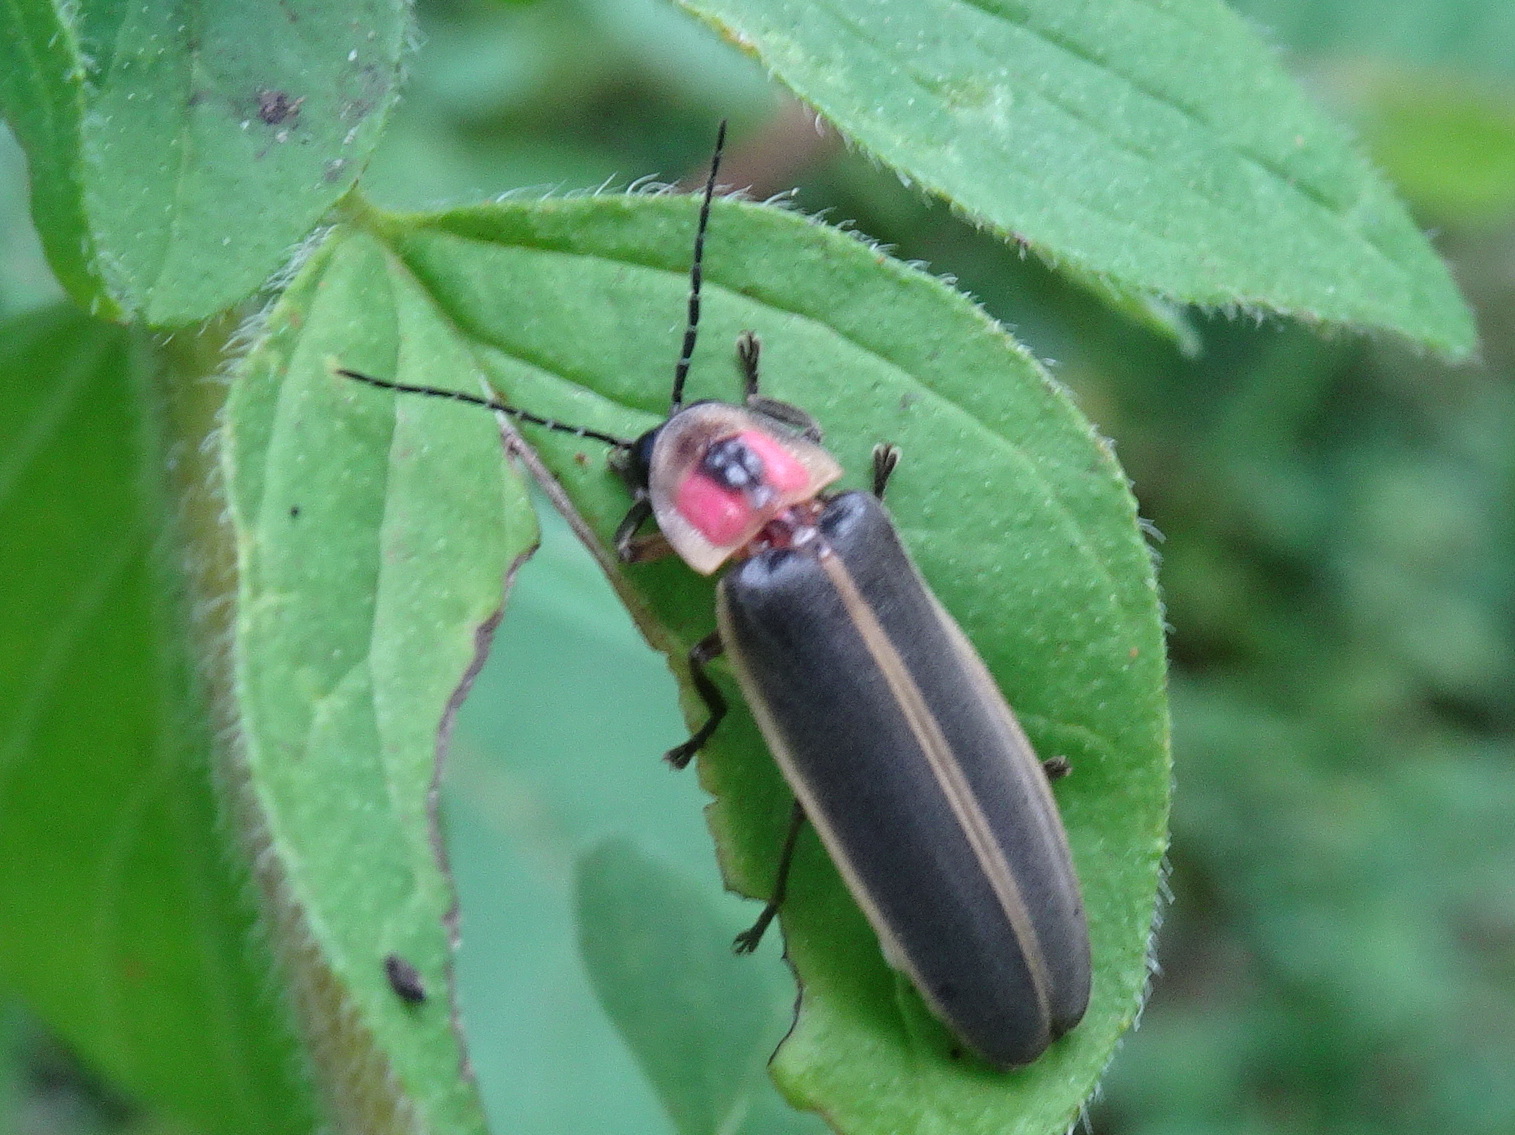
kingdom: Animalia
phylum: Arthropoda
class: Insecta
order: Coleoptera
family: Lampyridae
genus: Photinus
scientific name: Photinus pyralis
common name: Big dipper firefly
